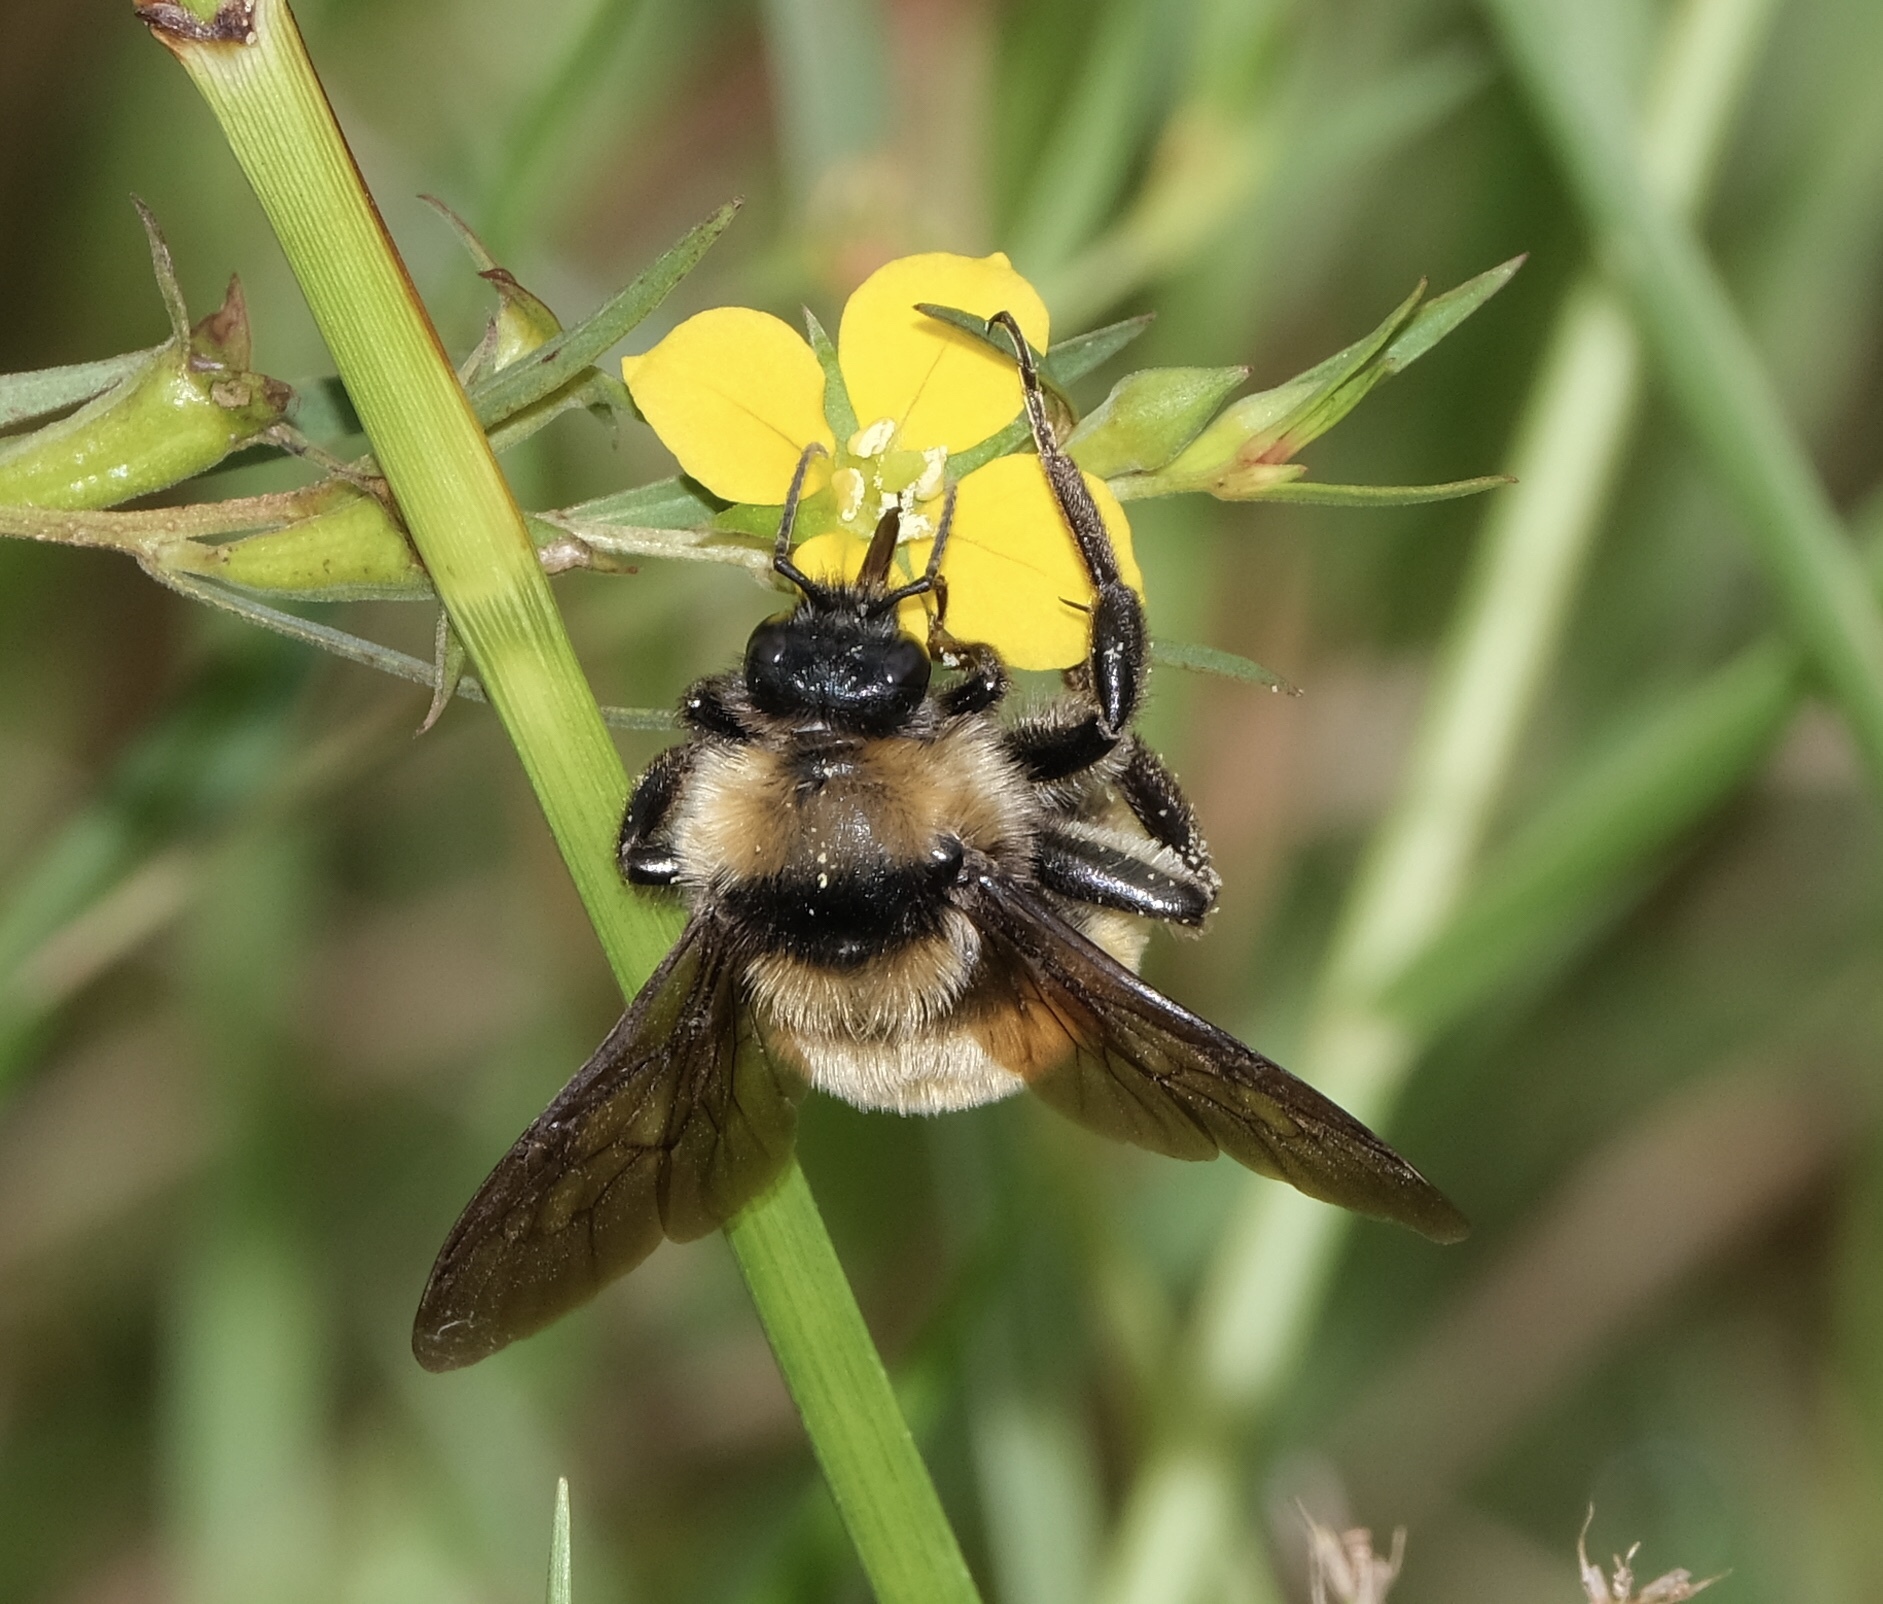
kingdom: Animalia
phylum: Arthropoda
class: Insecta
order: Hymenoptera
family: Apidae
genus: Bombus
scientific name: Bombus pensylvanicus
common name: Bumble bee
